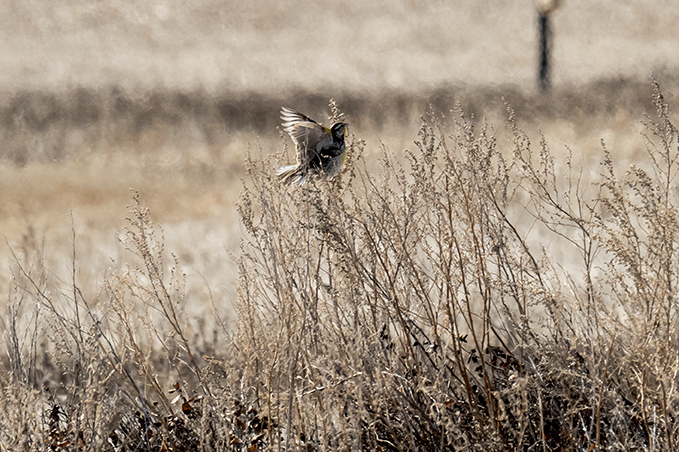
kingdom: Animalia
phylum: Chordata
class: Aves
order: Passeriformes
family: Icteridae
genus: Sturnella
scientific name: Sturnella neglecta
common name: Western meadowlark
